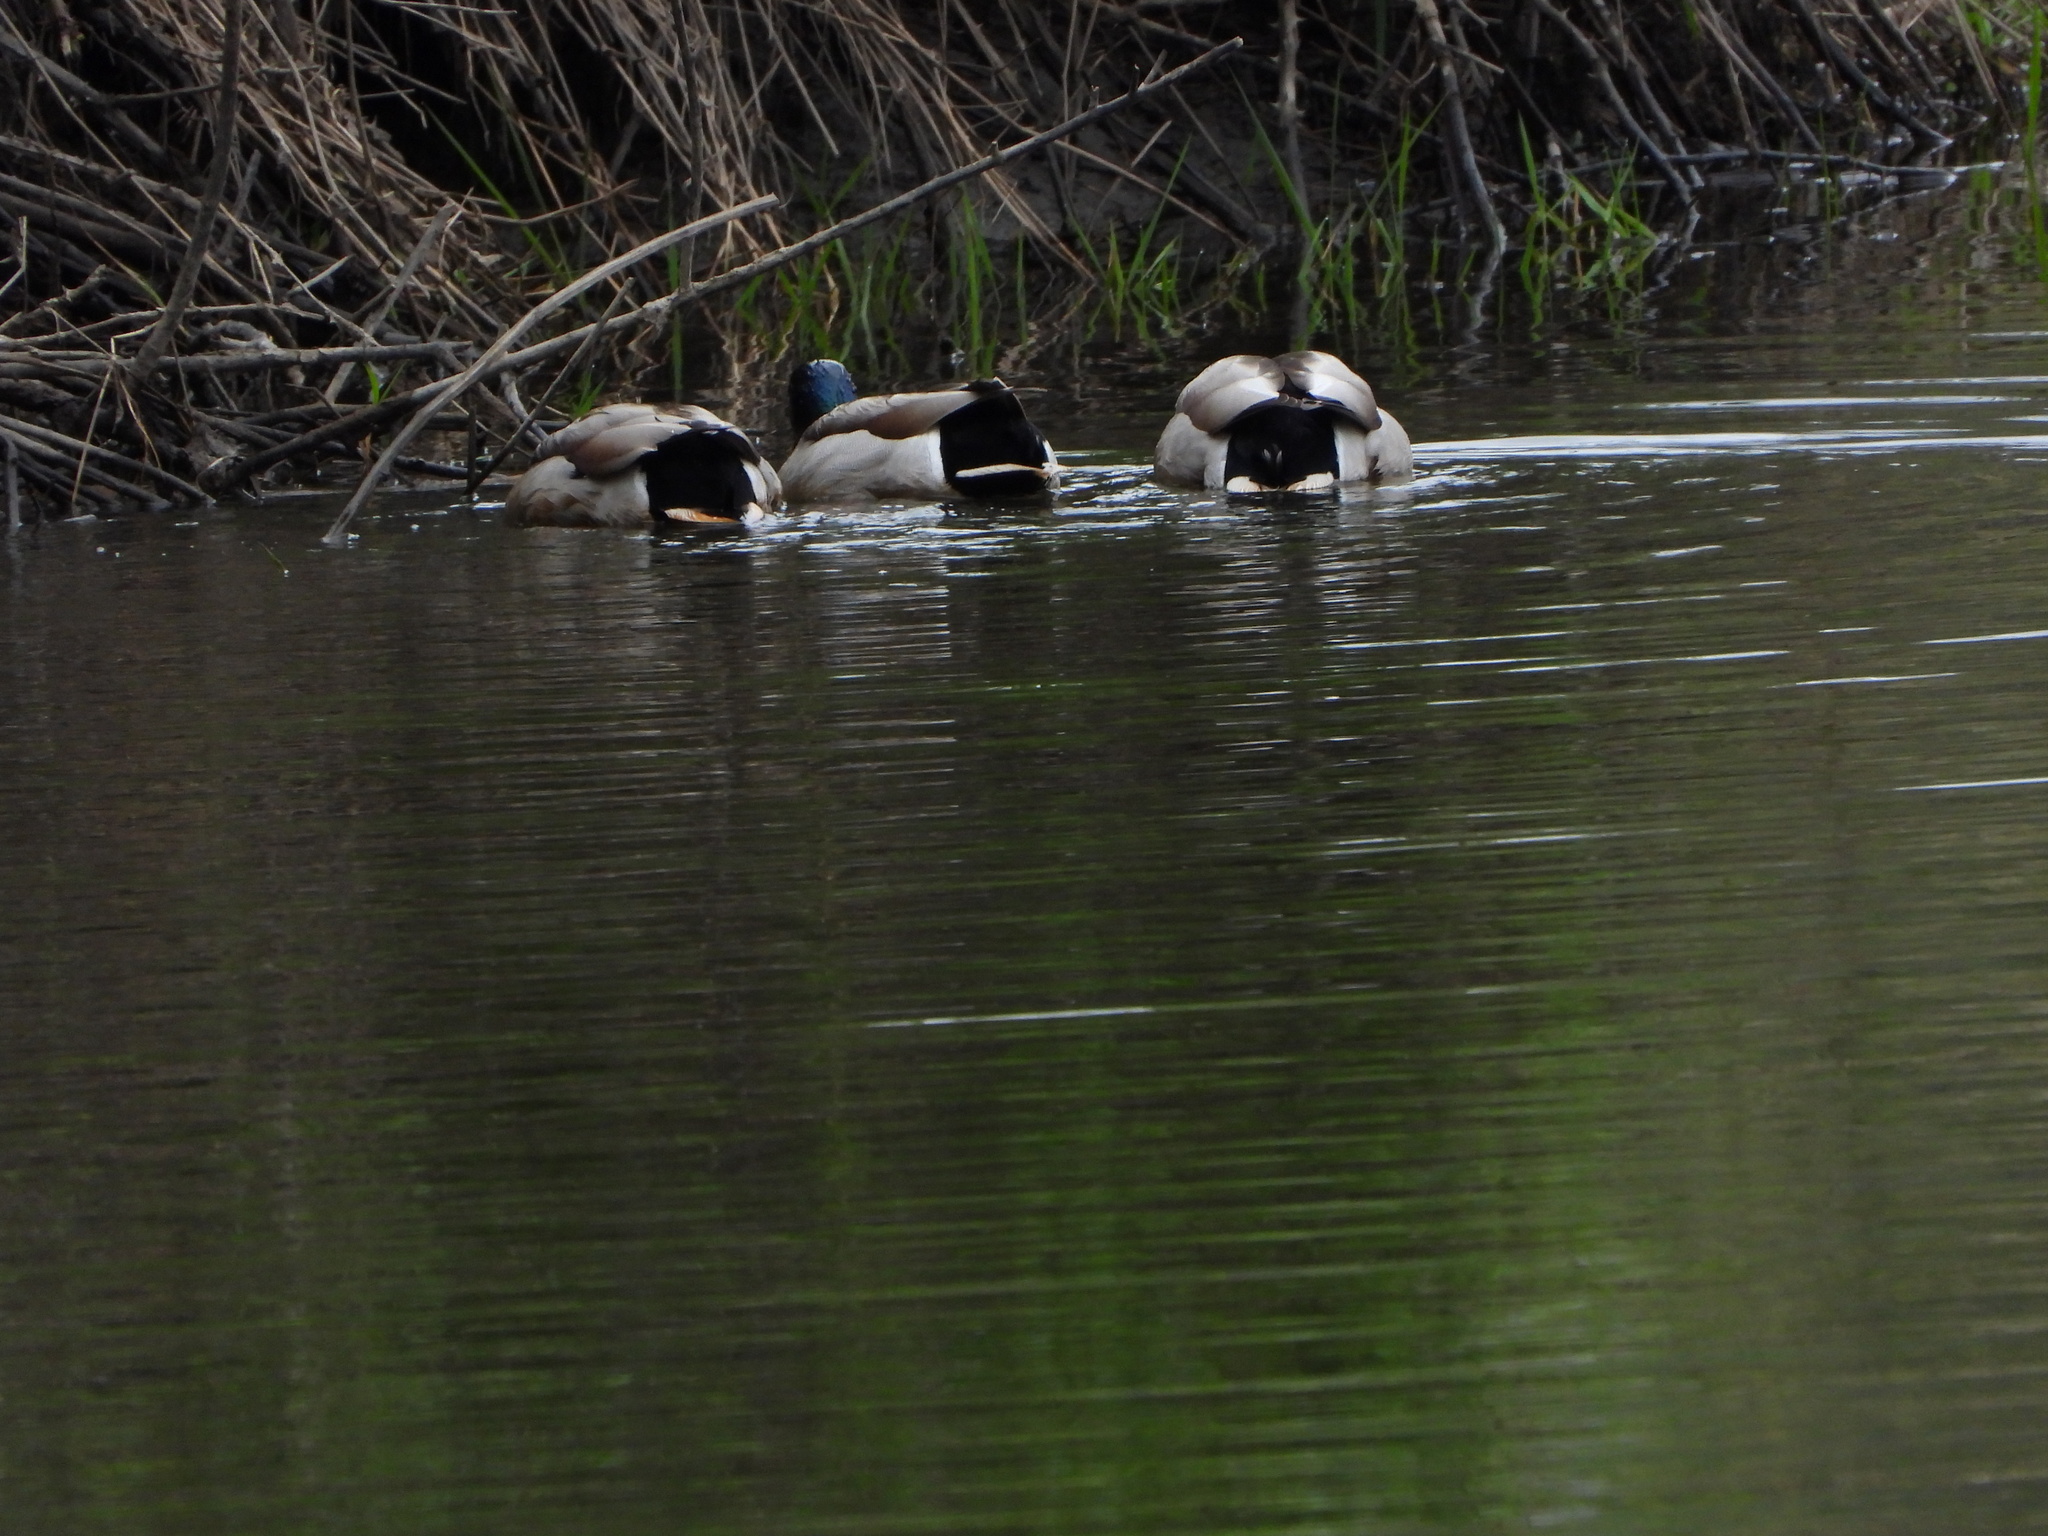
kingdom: Animalia
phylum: Chordata
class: Aves
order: Anseriformes
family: Anatidae
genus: Anas
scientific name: Anas platyrhynchos
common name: Mallard
